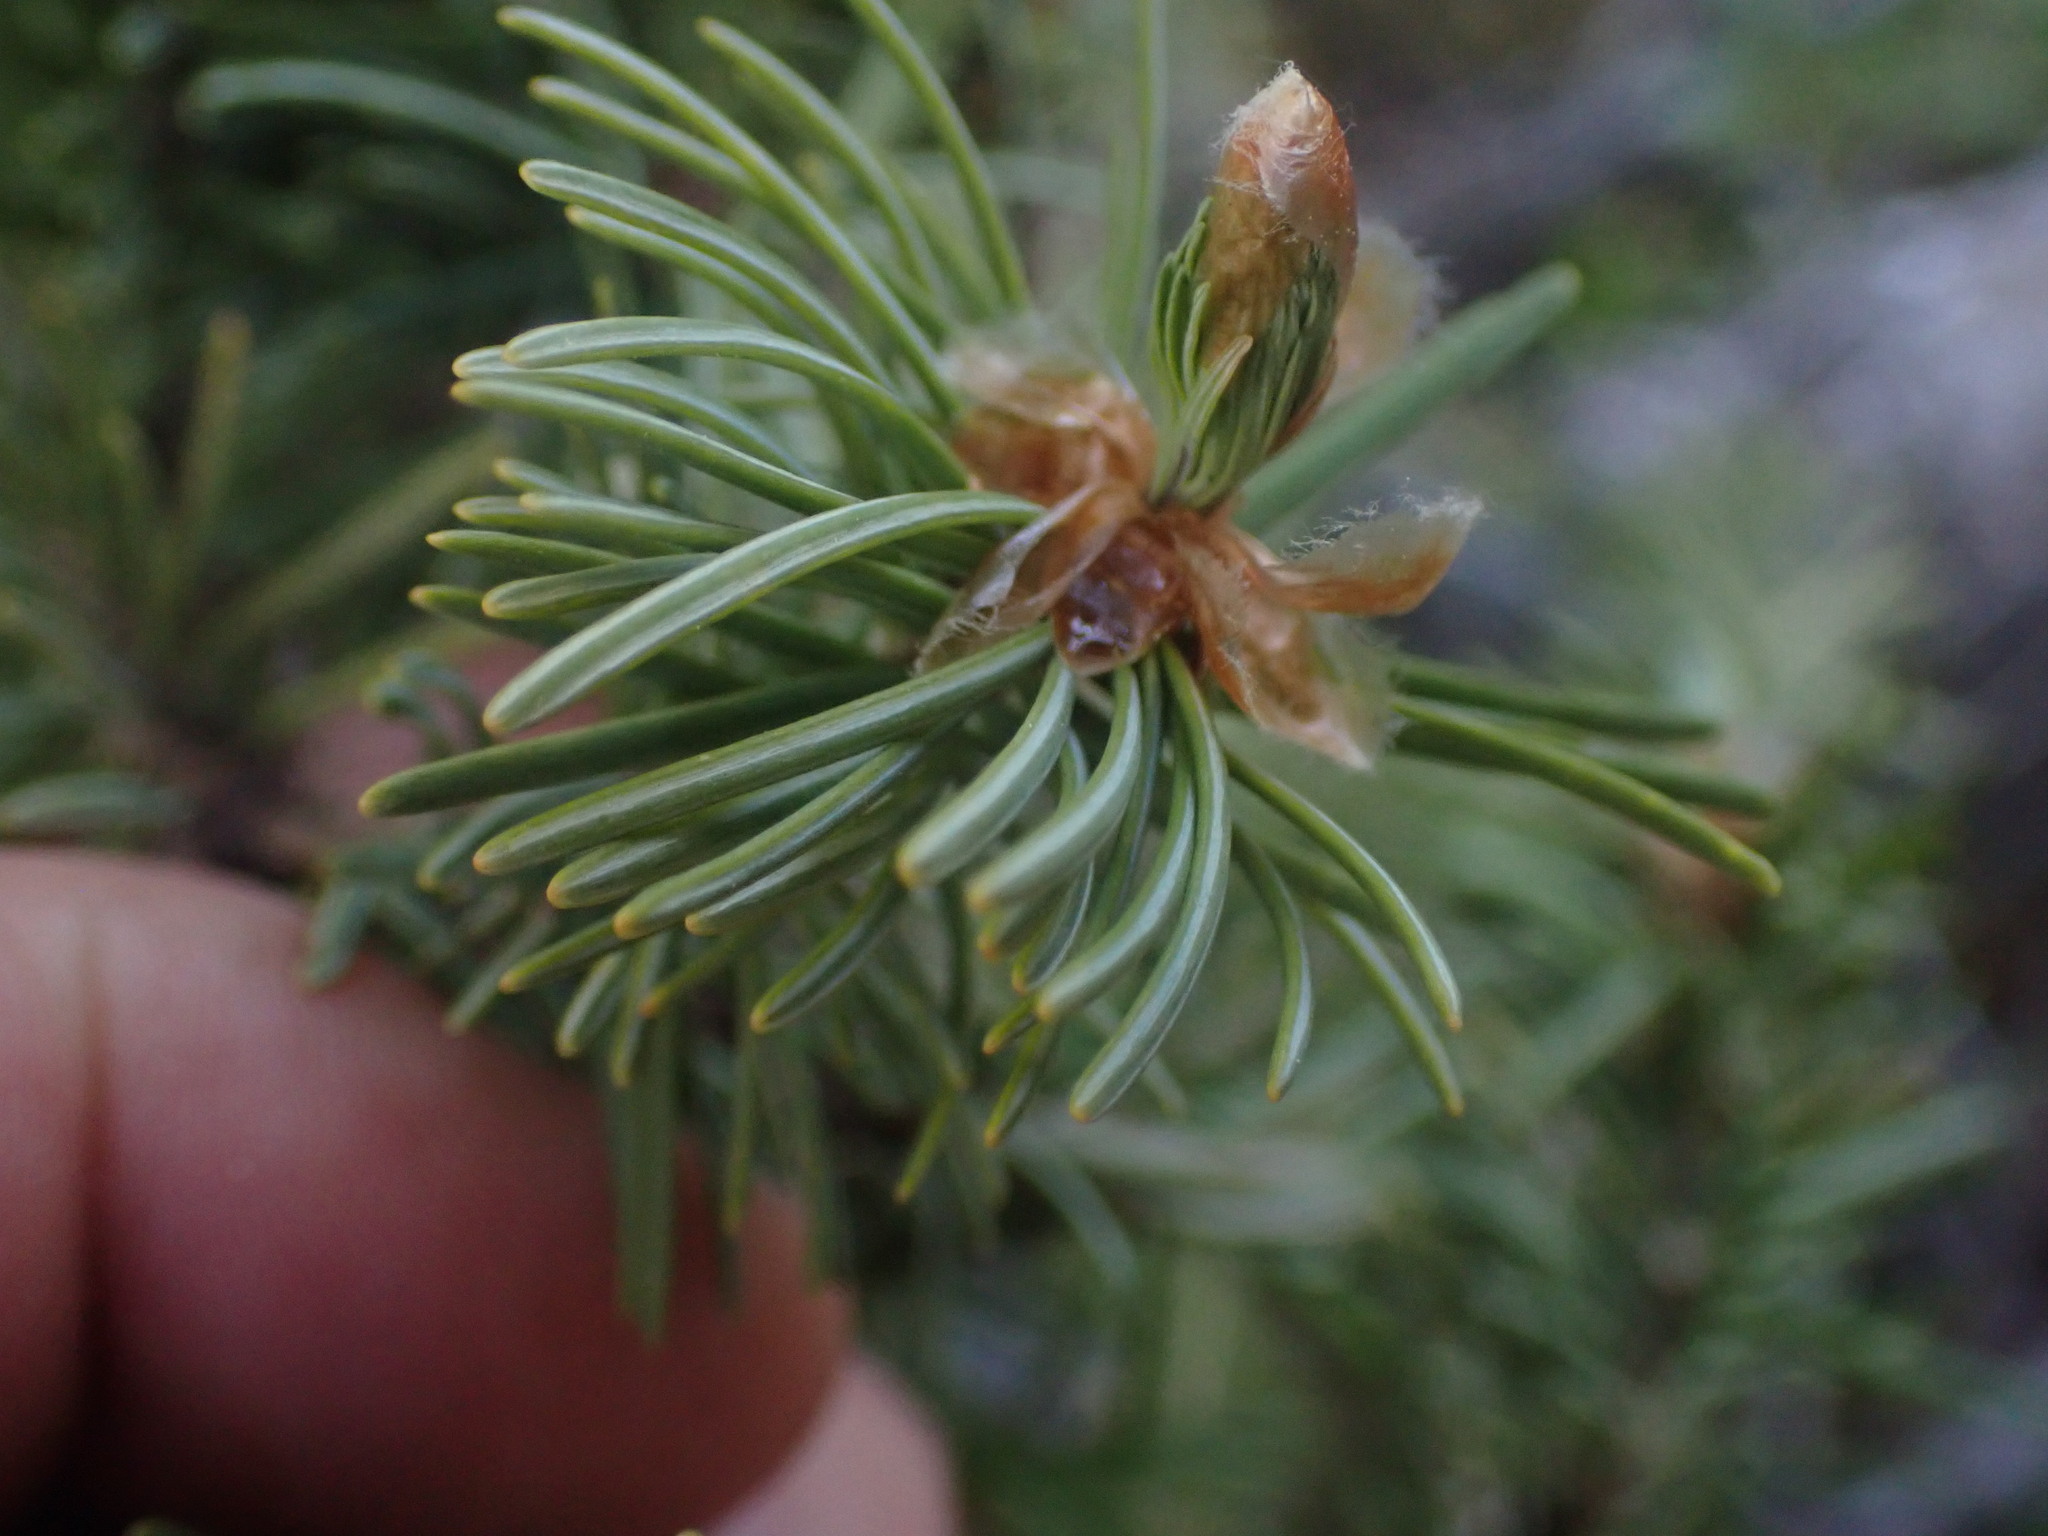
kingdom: Plantae
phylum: Tracheophyta
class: Pinopsida
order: Pinales
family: Pinaceae
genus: Pseudotsuga
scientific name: Pseudotsuga menziesii
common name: Douglas fir
